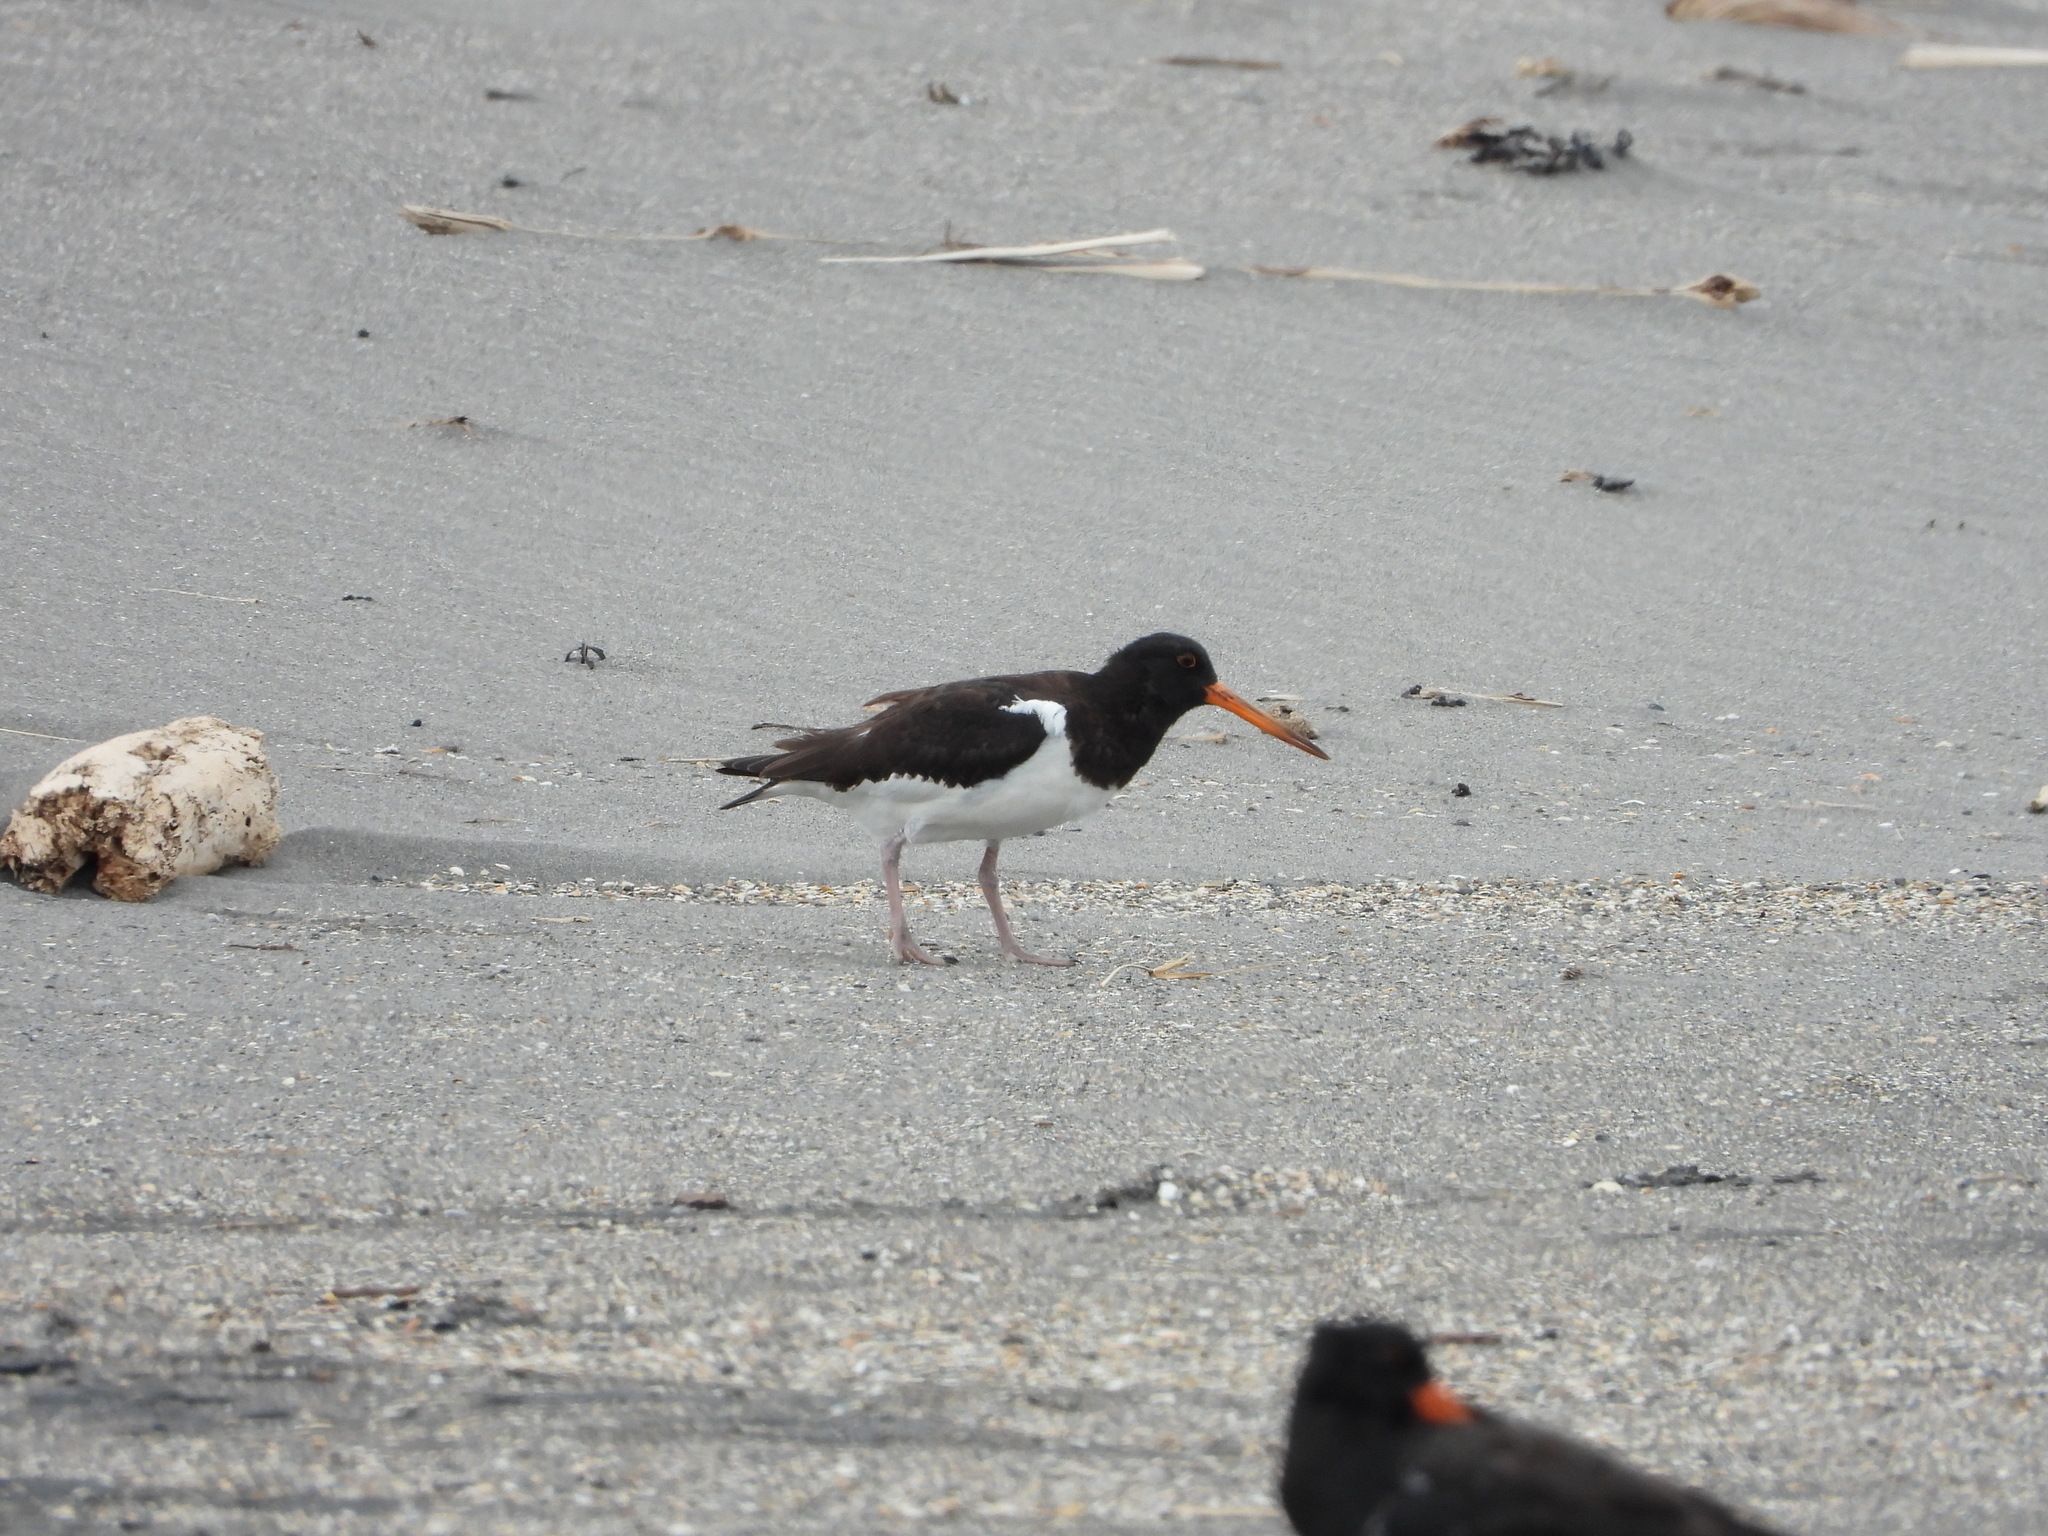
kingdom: Animalia
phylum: Chordata
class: Aves
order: Charadriiformes
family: Haematopodidae
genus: Haematopus
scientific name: Haematopus finschi
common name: South island oystercatcher
